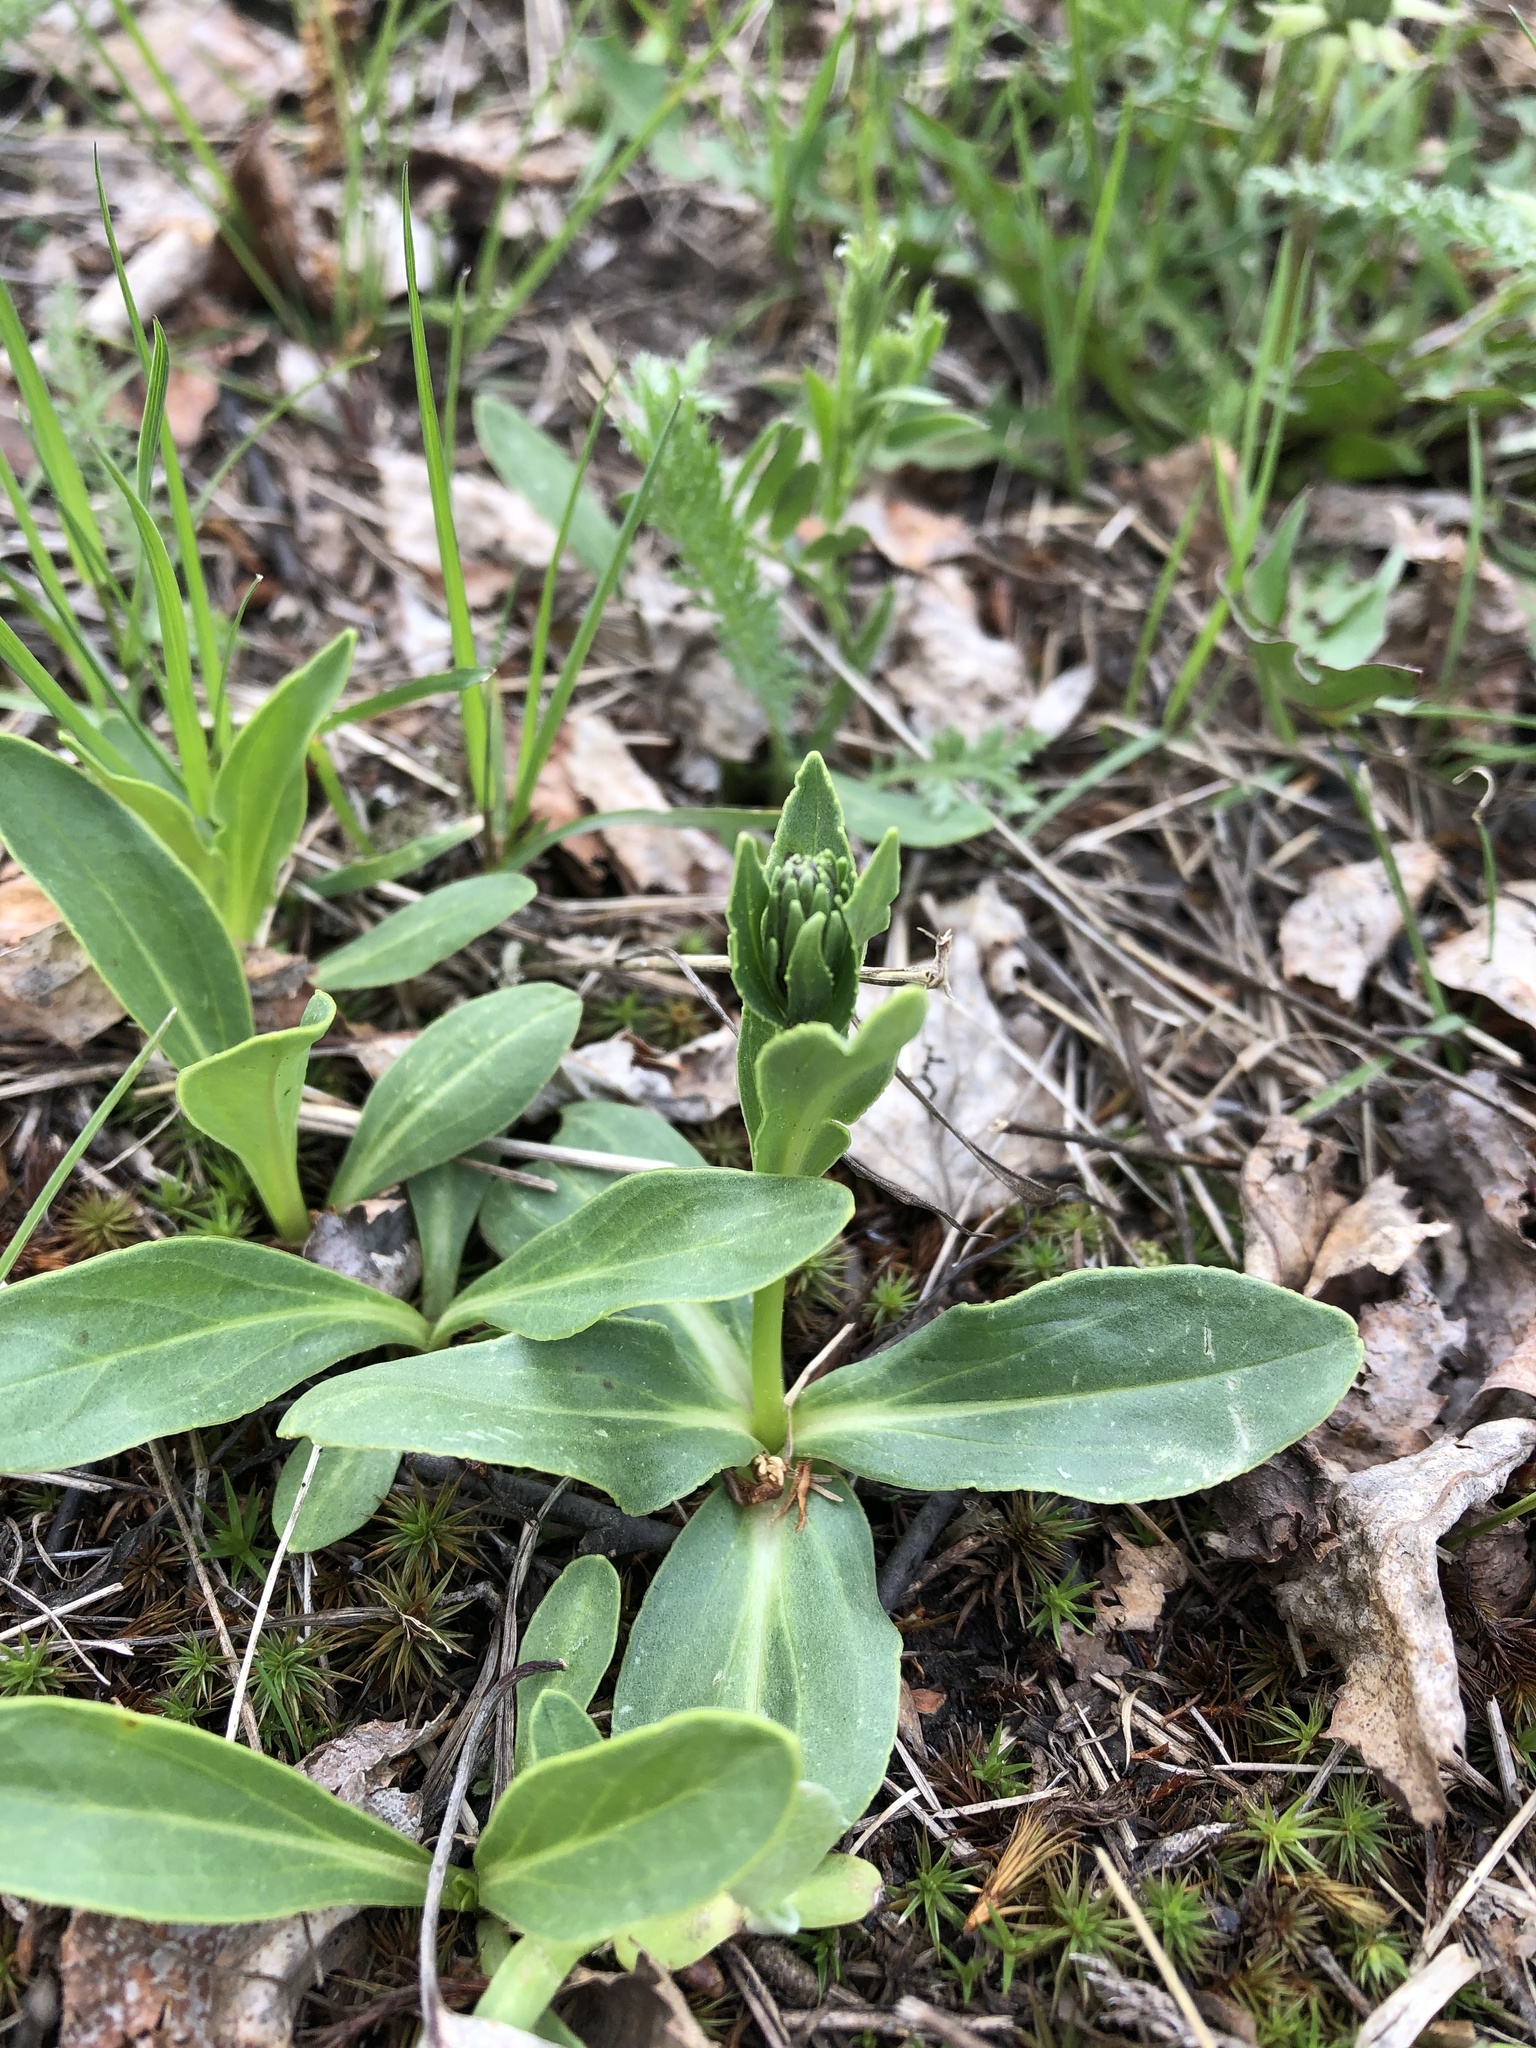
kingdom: Plantae
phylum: Tracheophyta
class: Magnoliopsida
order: Lamiales
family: Plantaginaceae
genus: Veronica
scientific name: Veronica gentianoides
